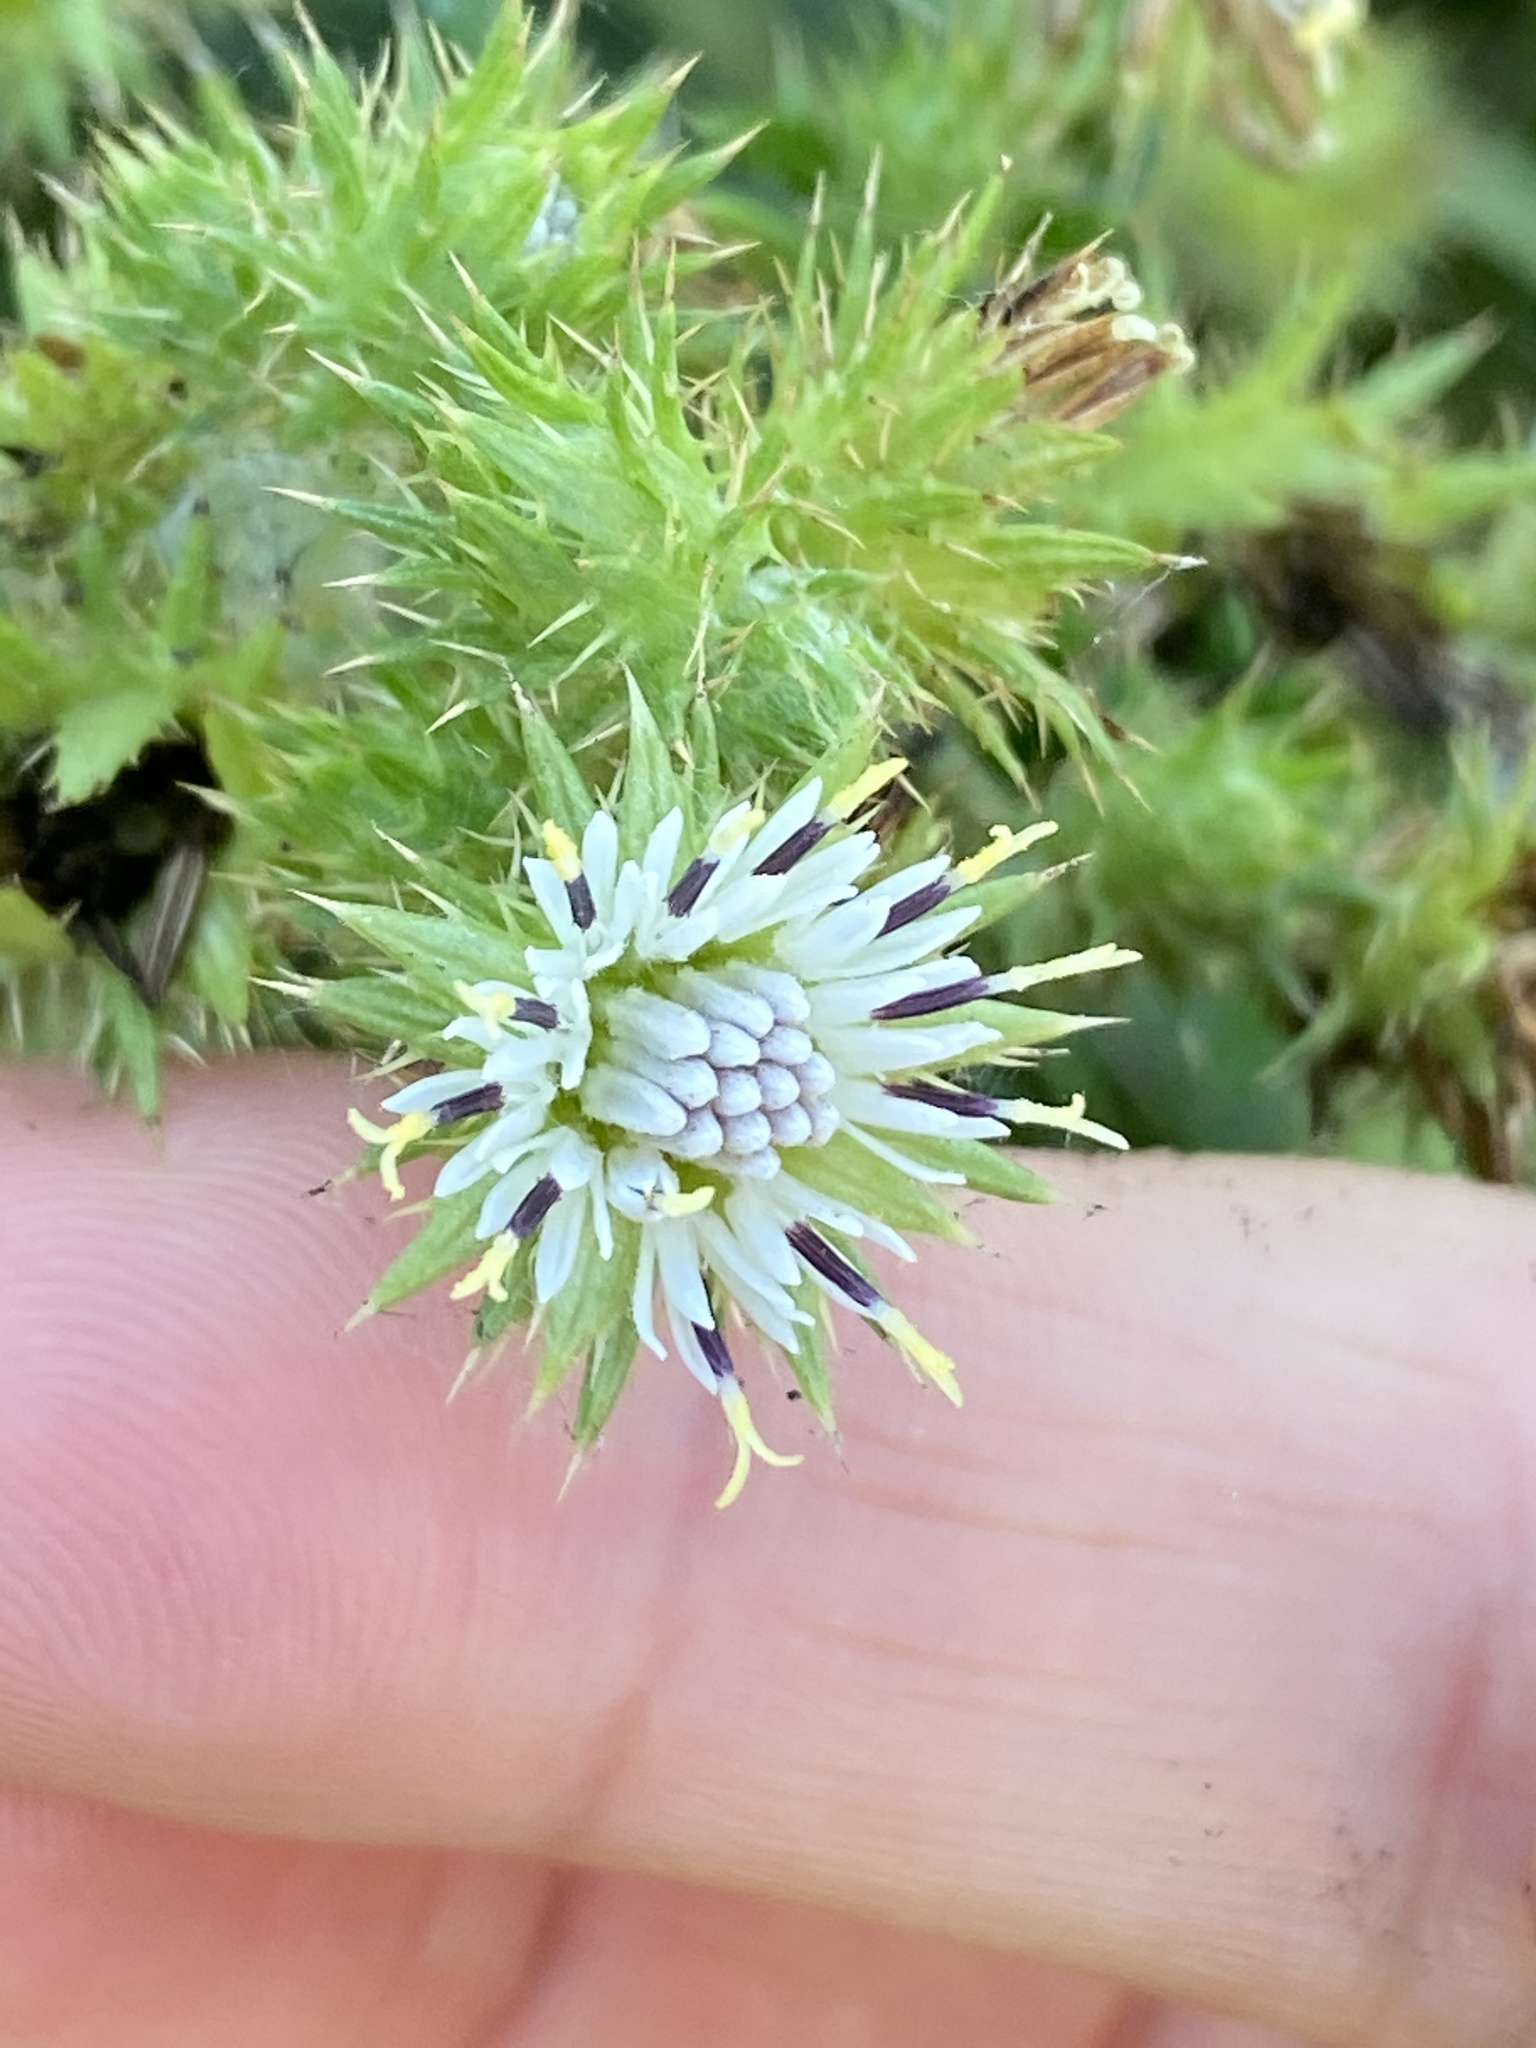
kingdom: Plantae
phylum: Tracheophyta
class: Magnoliopsida
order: Asterales
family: Asteraceae
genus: Berkheya
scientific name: Berkheya bipinnatifida
